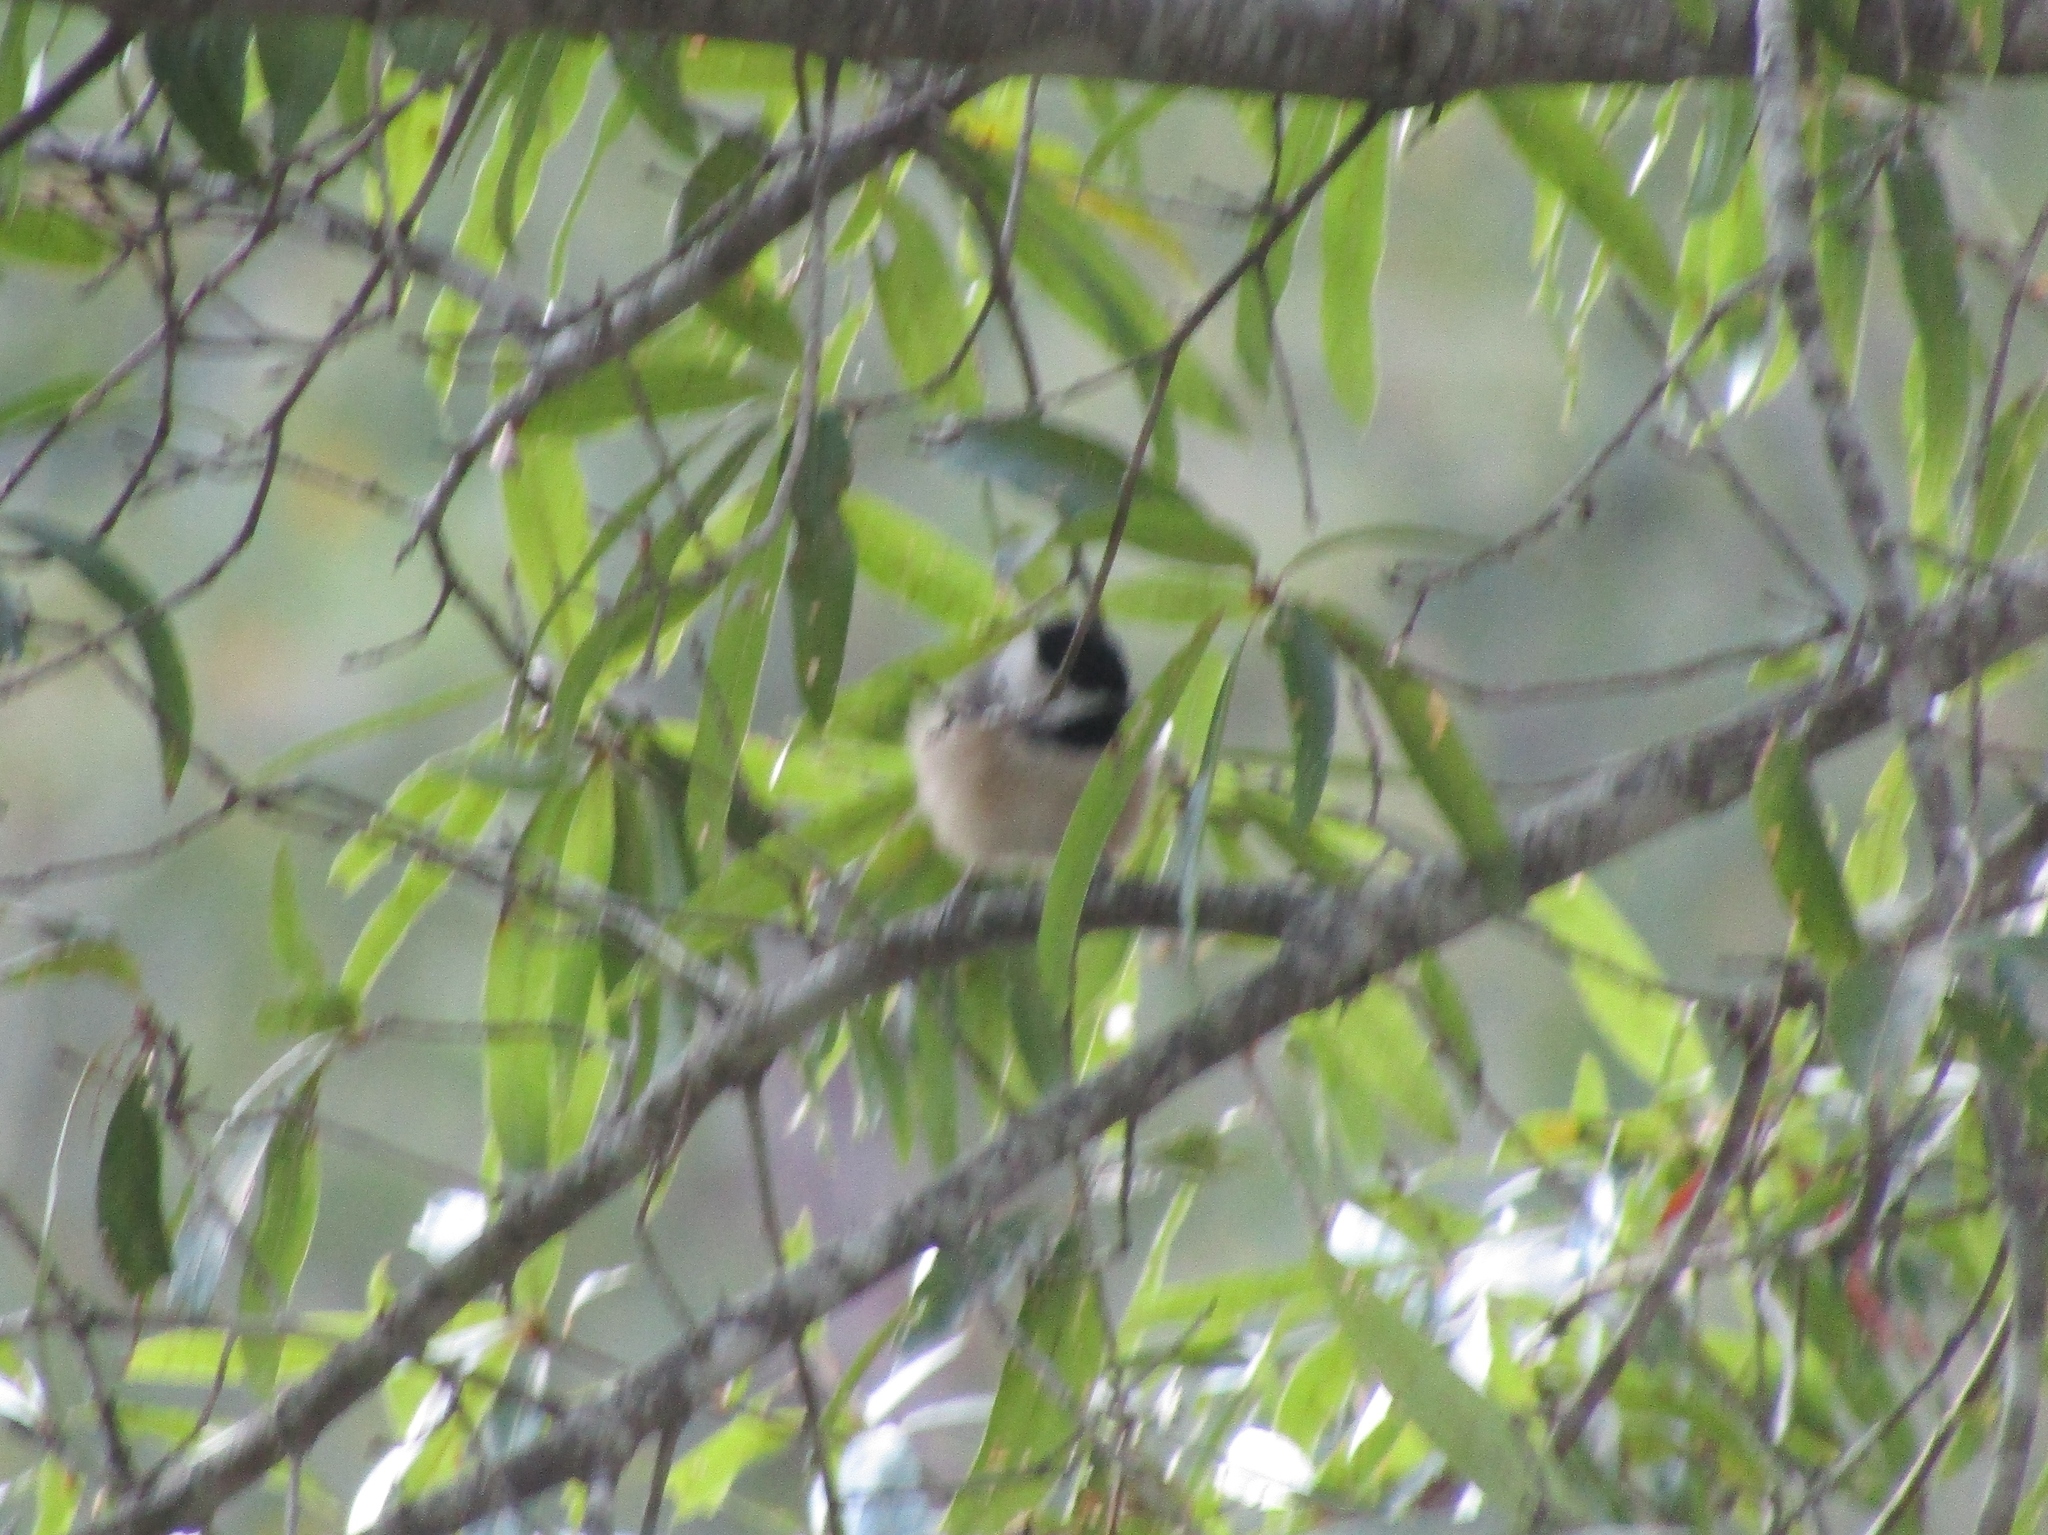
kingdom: Animalia
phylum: Chordata
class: Aves
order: Passeriformes
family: Paridae
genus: Poecile
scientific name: Poecile carolinensis
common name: Carolina chickadee
